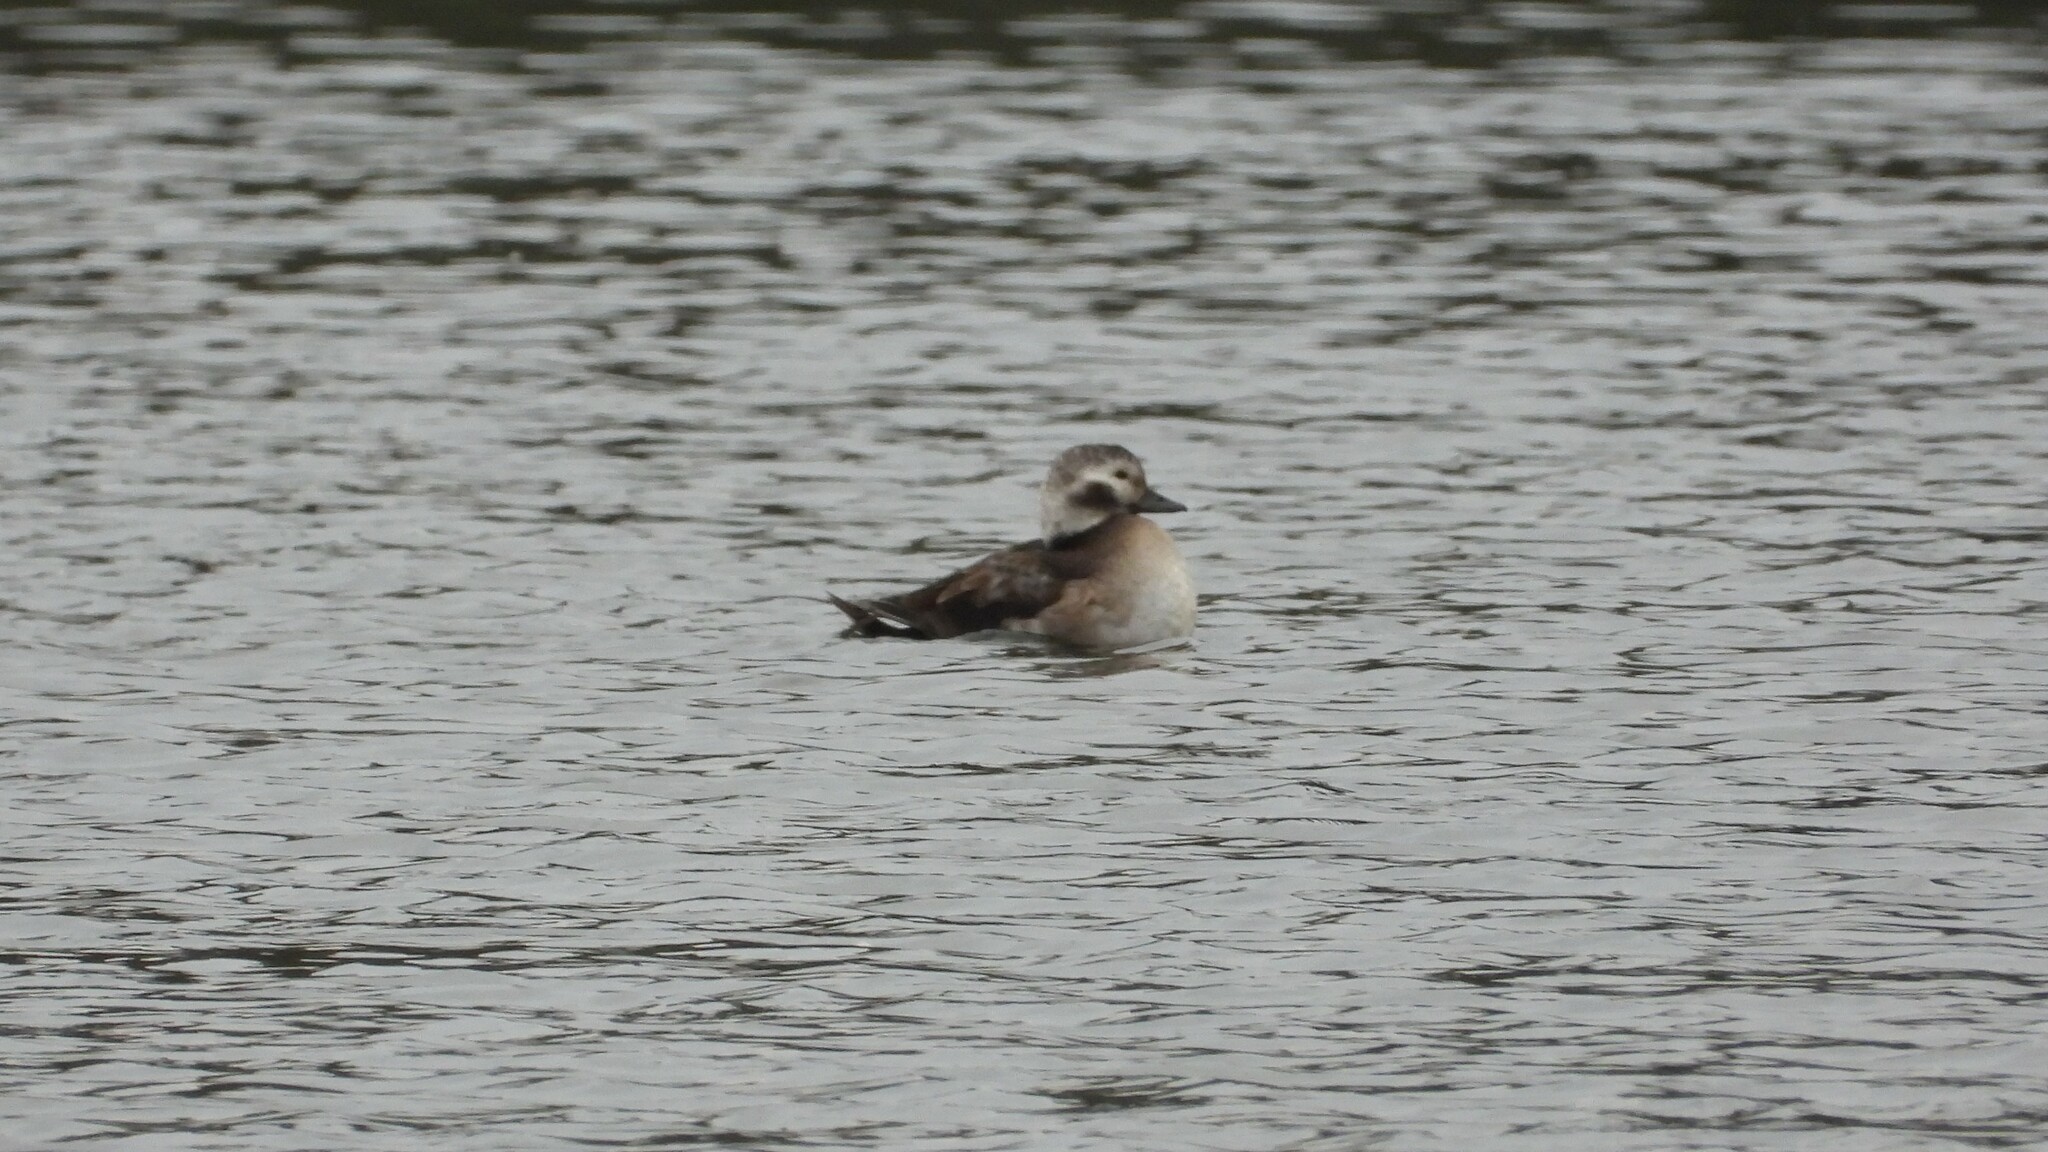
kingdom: Animalia
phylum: Chordata
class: Aves
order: Anseriformes
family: Anatidae
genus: Clangula
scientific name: Clangula hyemalis
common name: Long-tailed duck
